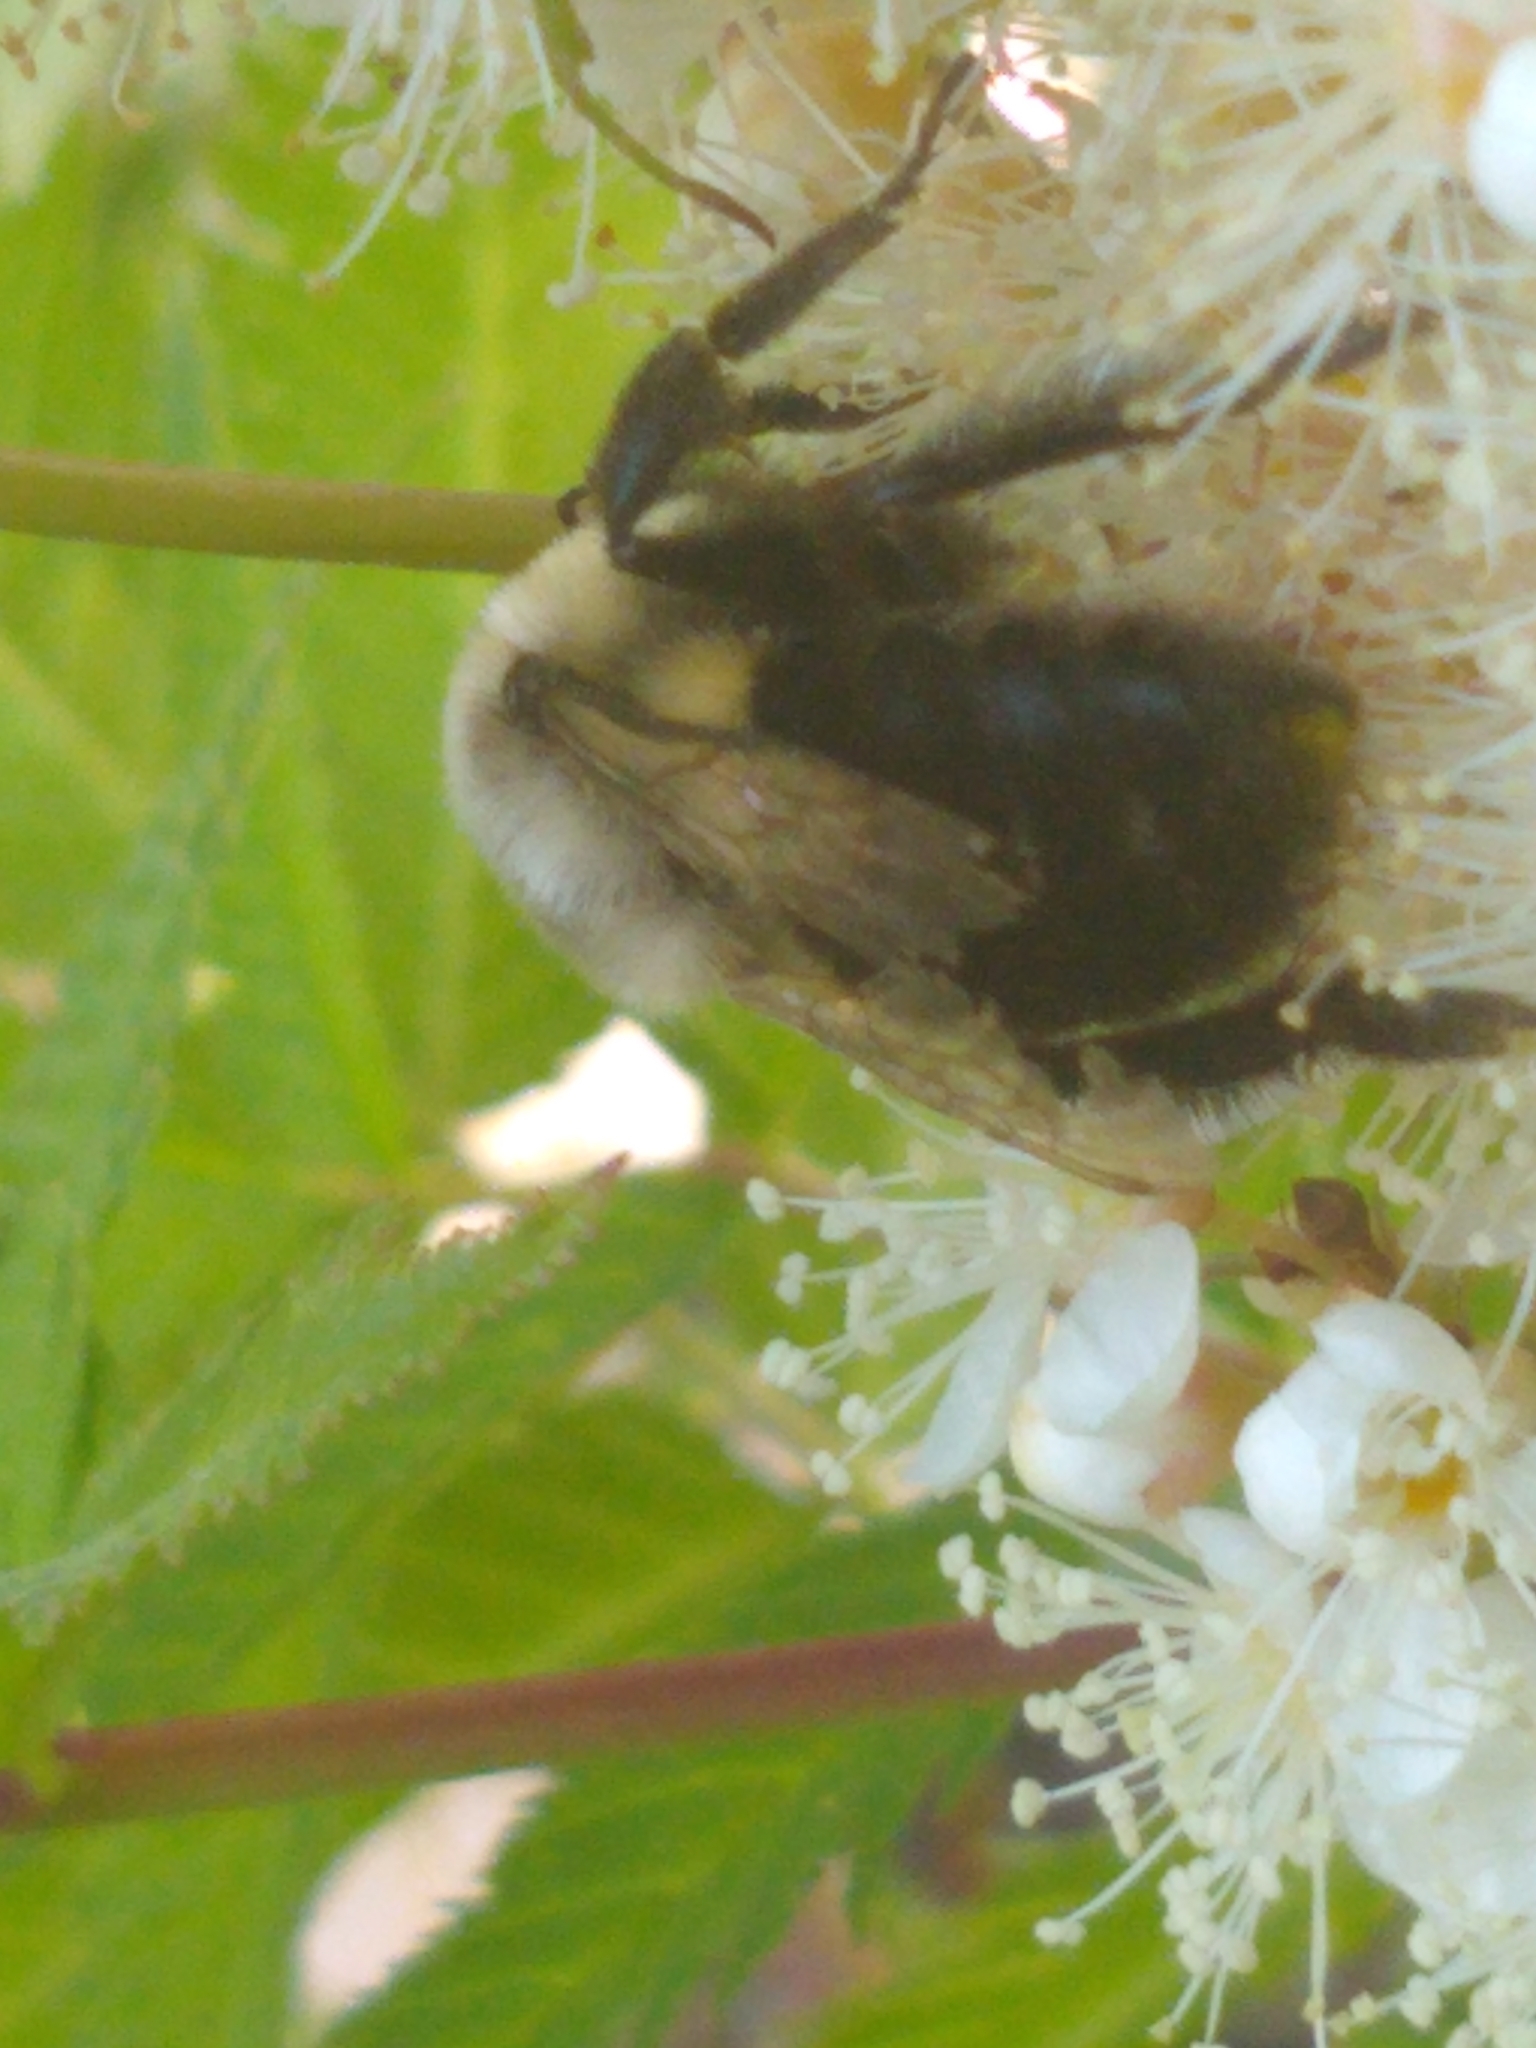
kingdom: Animalia
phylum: Arthropoda
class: Insecta
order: Hymenoptera
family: Apidae
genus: Bombus
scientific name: Bombus impatiens
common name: Common eastern bumble bee
